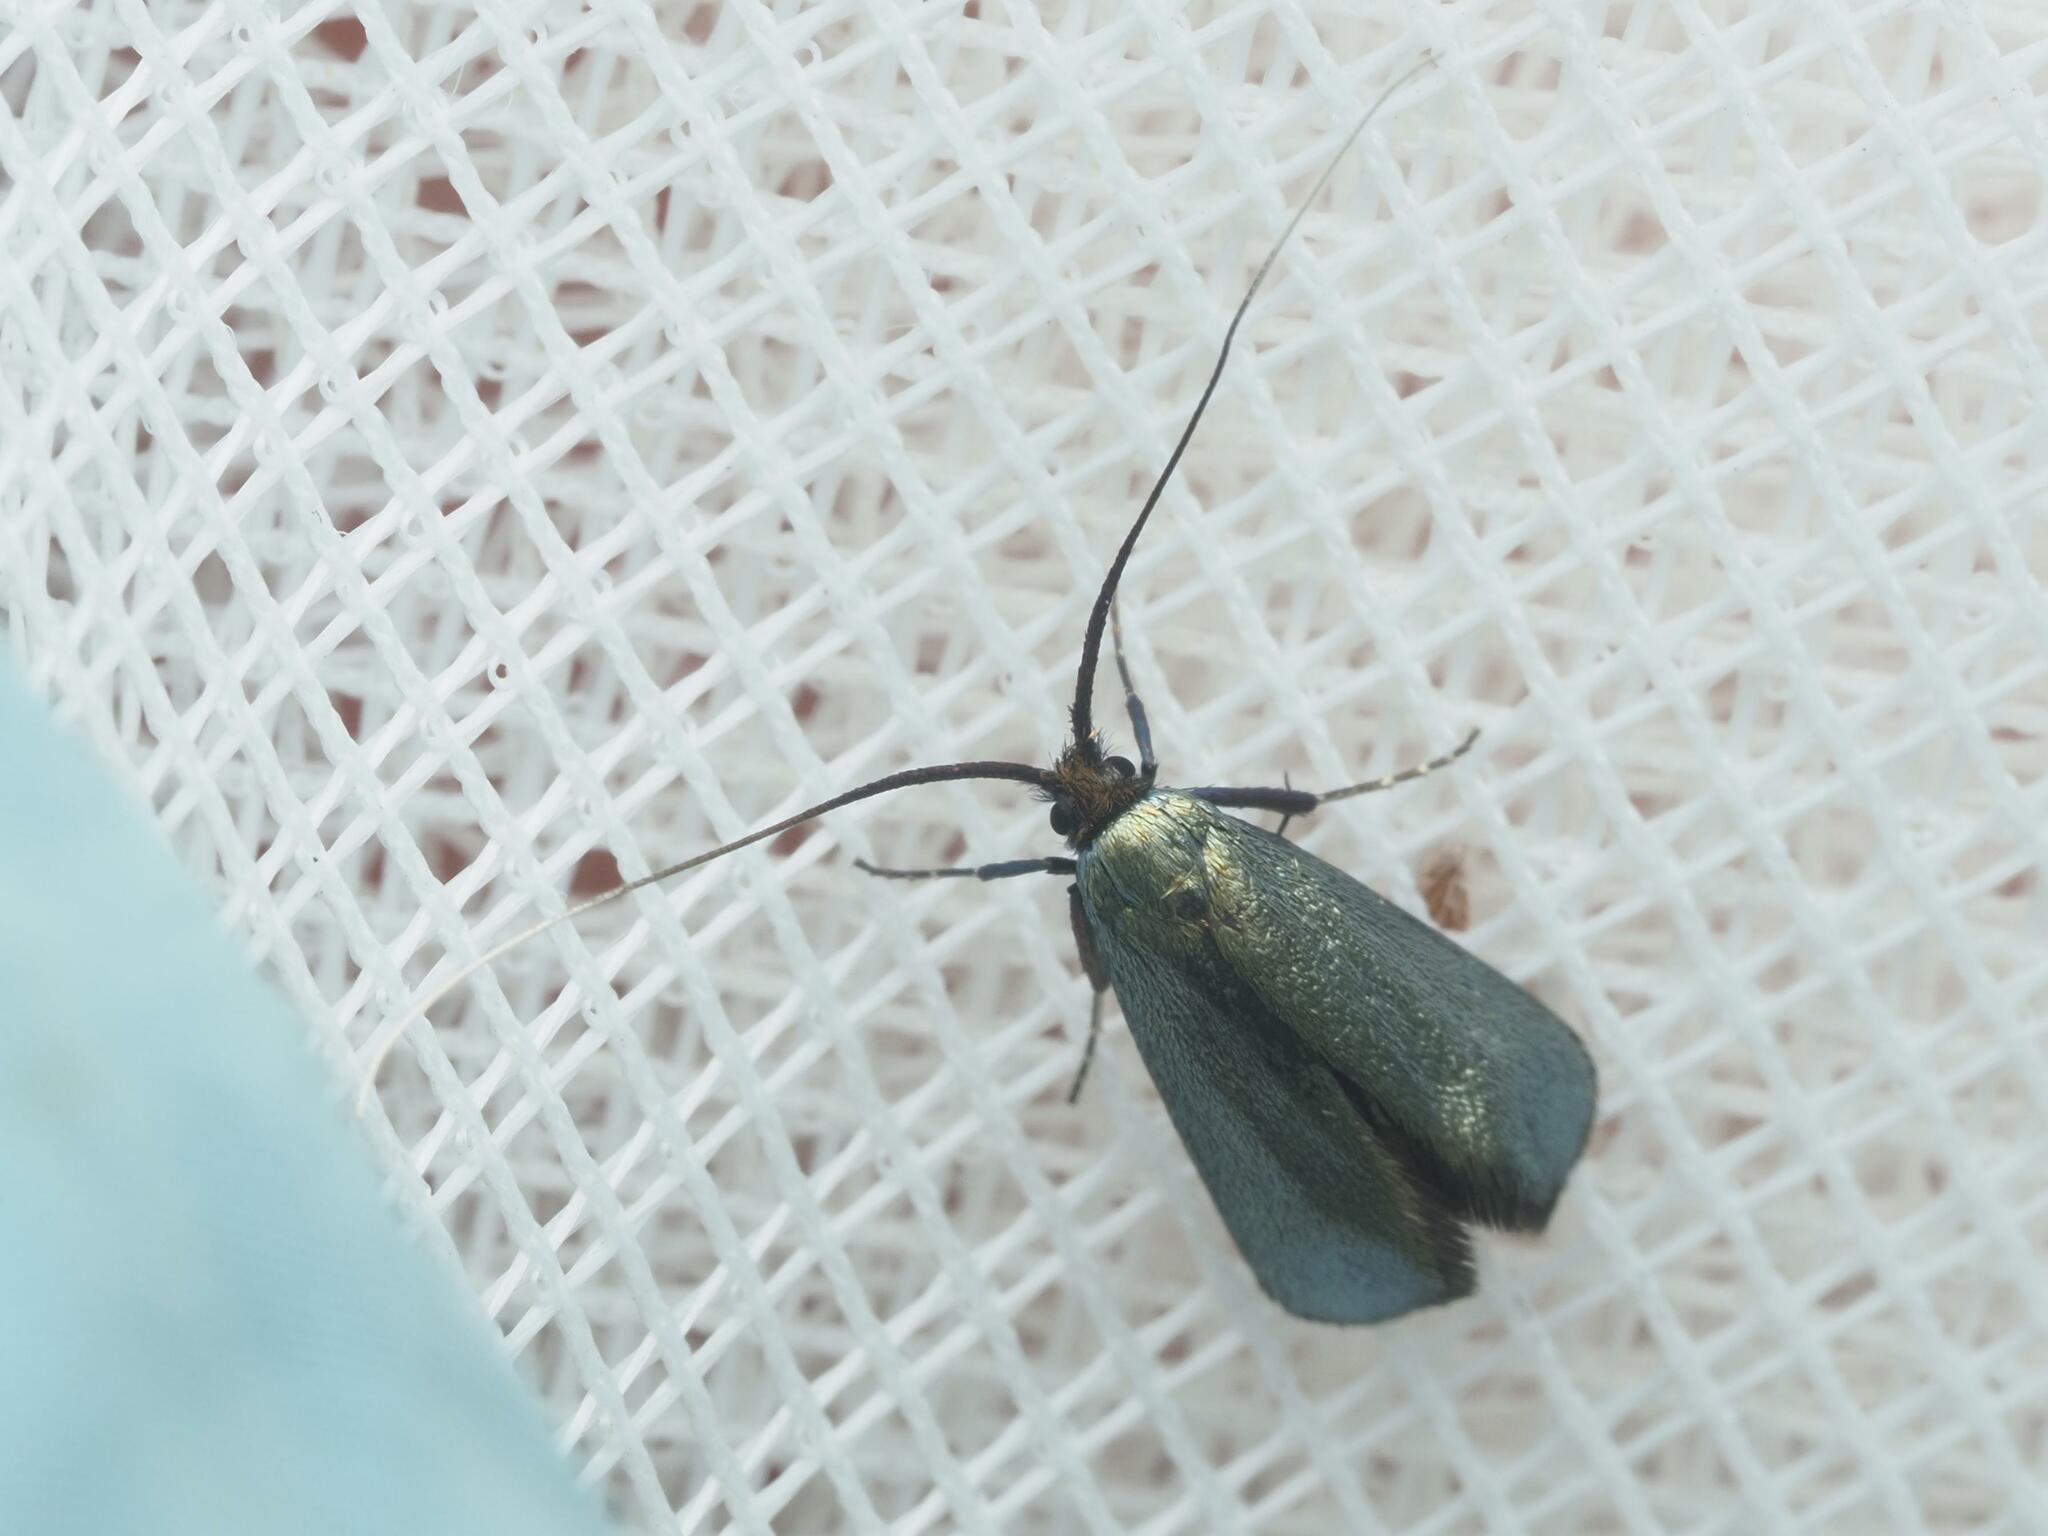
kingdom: Animalia
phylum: Arthropoda
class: Insecta
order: Lepidoptera
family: Adelidae
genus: Adela
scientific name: Adela viridella
